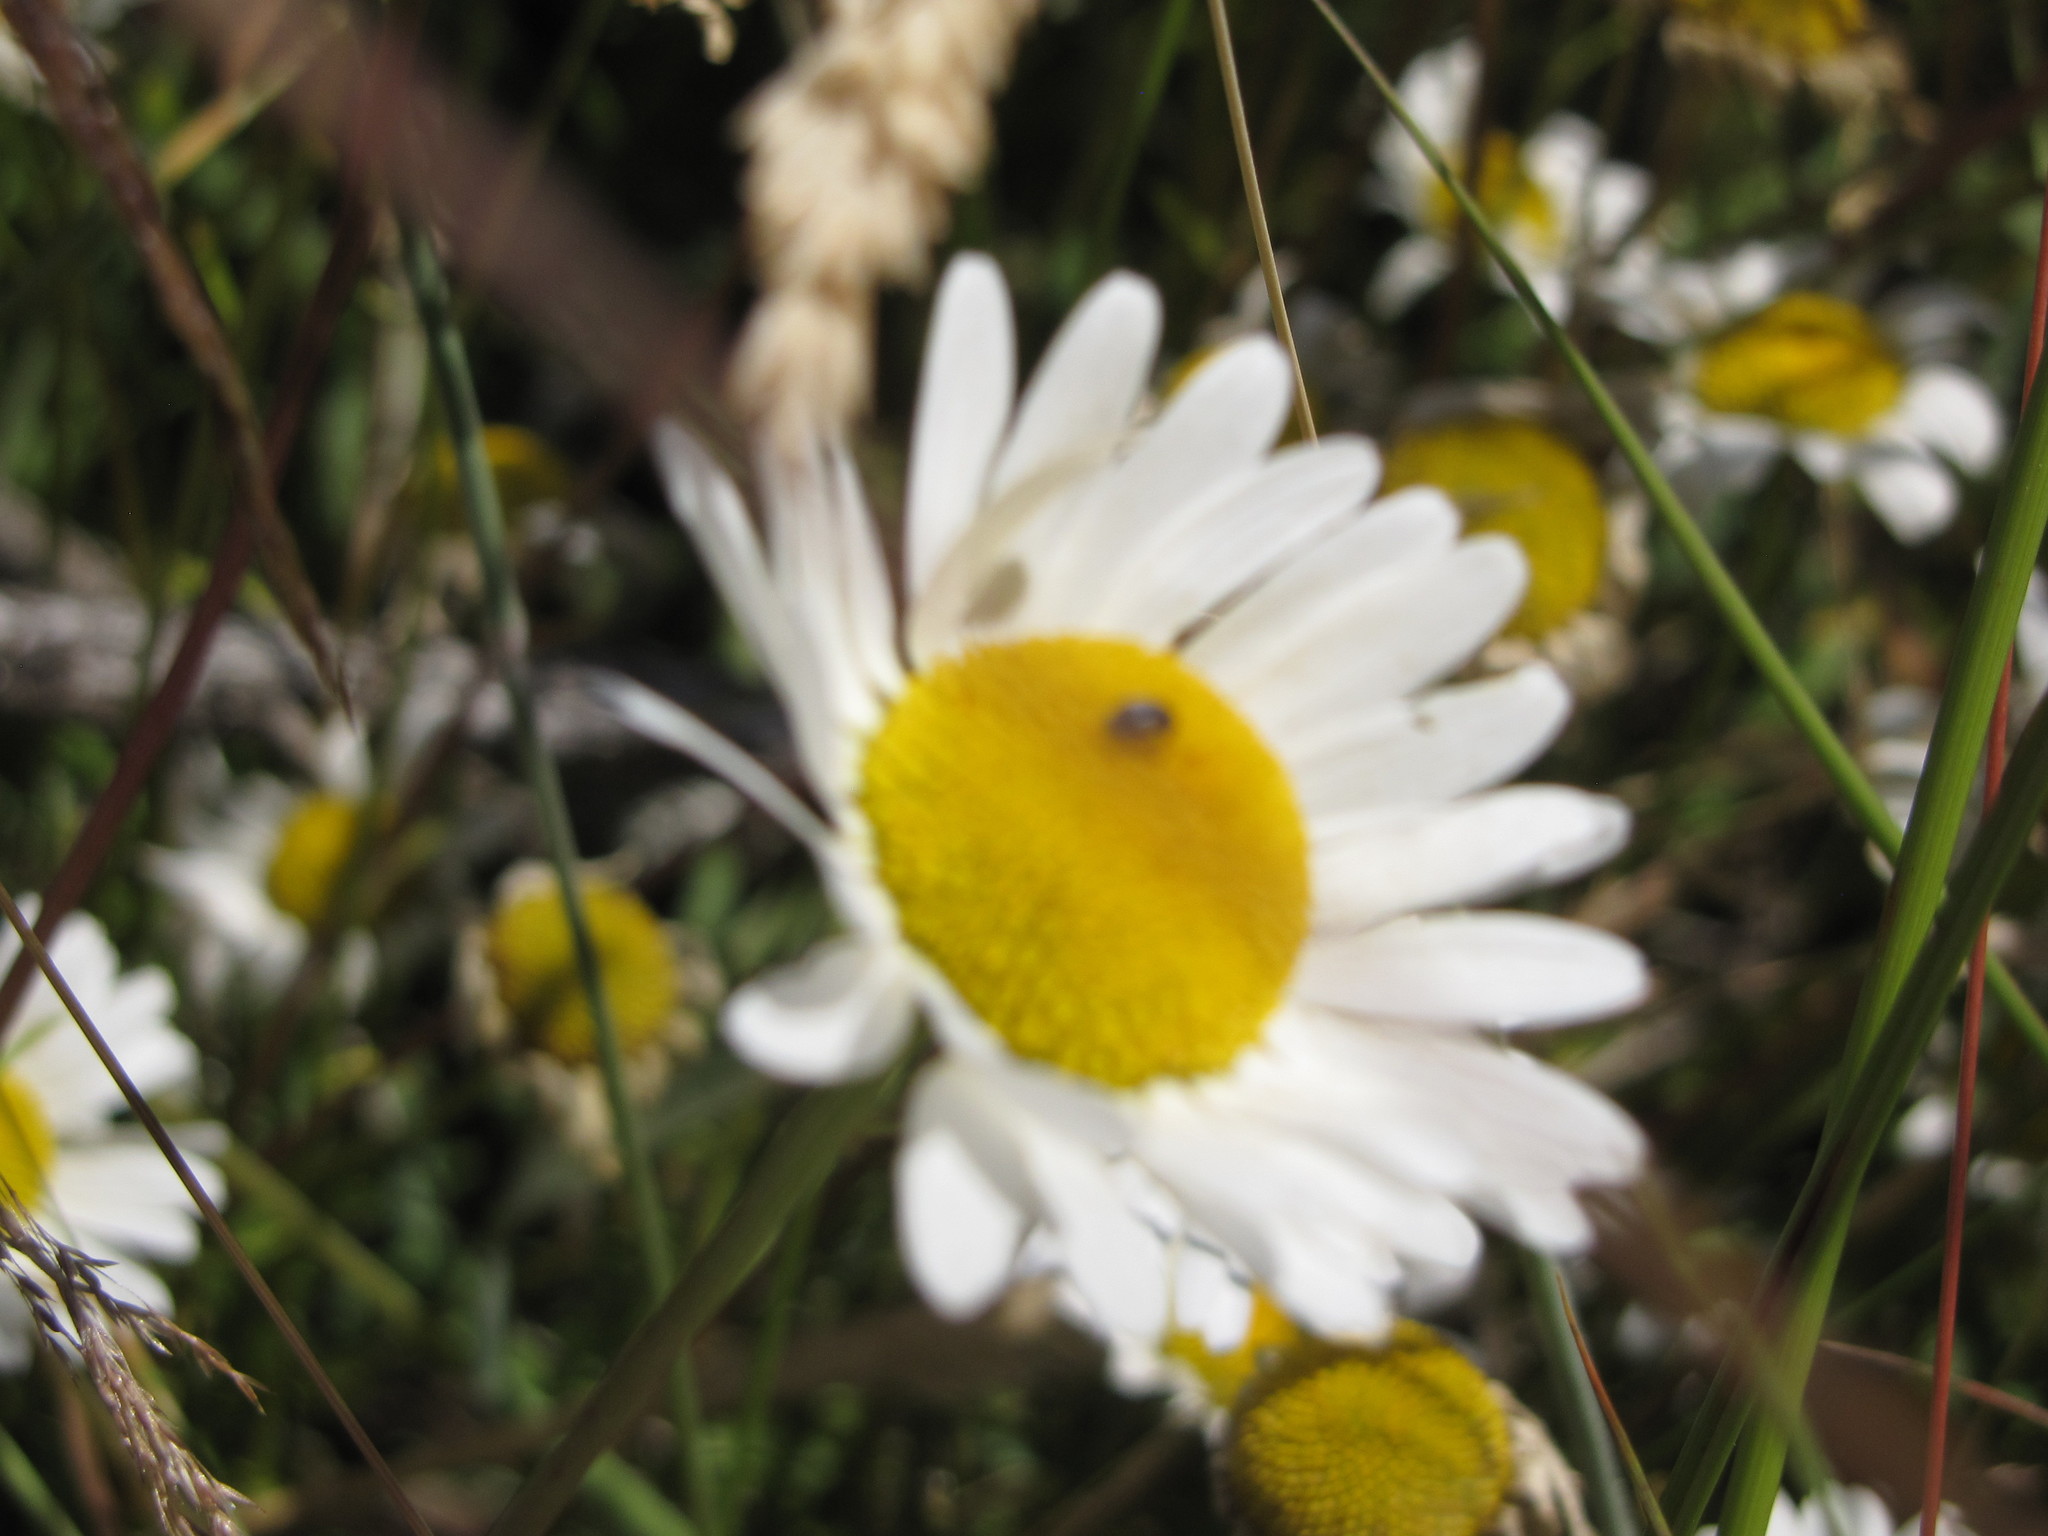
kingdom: Plantae
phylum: Tracheophyta
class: Magnoliopsida
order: Asterales
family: Asteraceae
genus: Leucanthemum
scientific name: Leucanthemum vulgare
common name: Oxeye daisy
